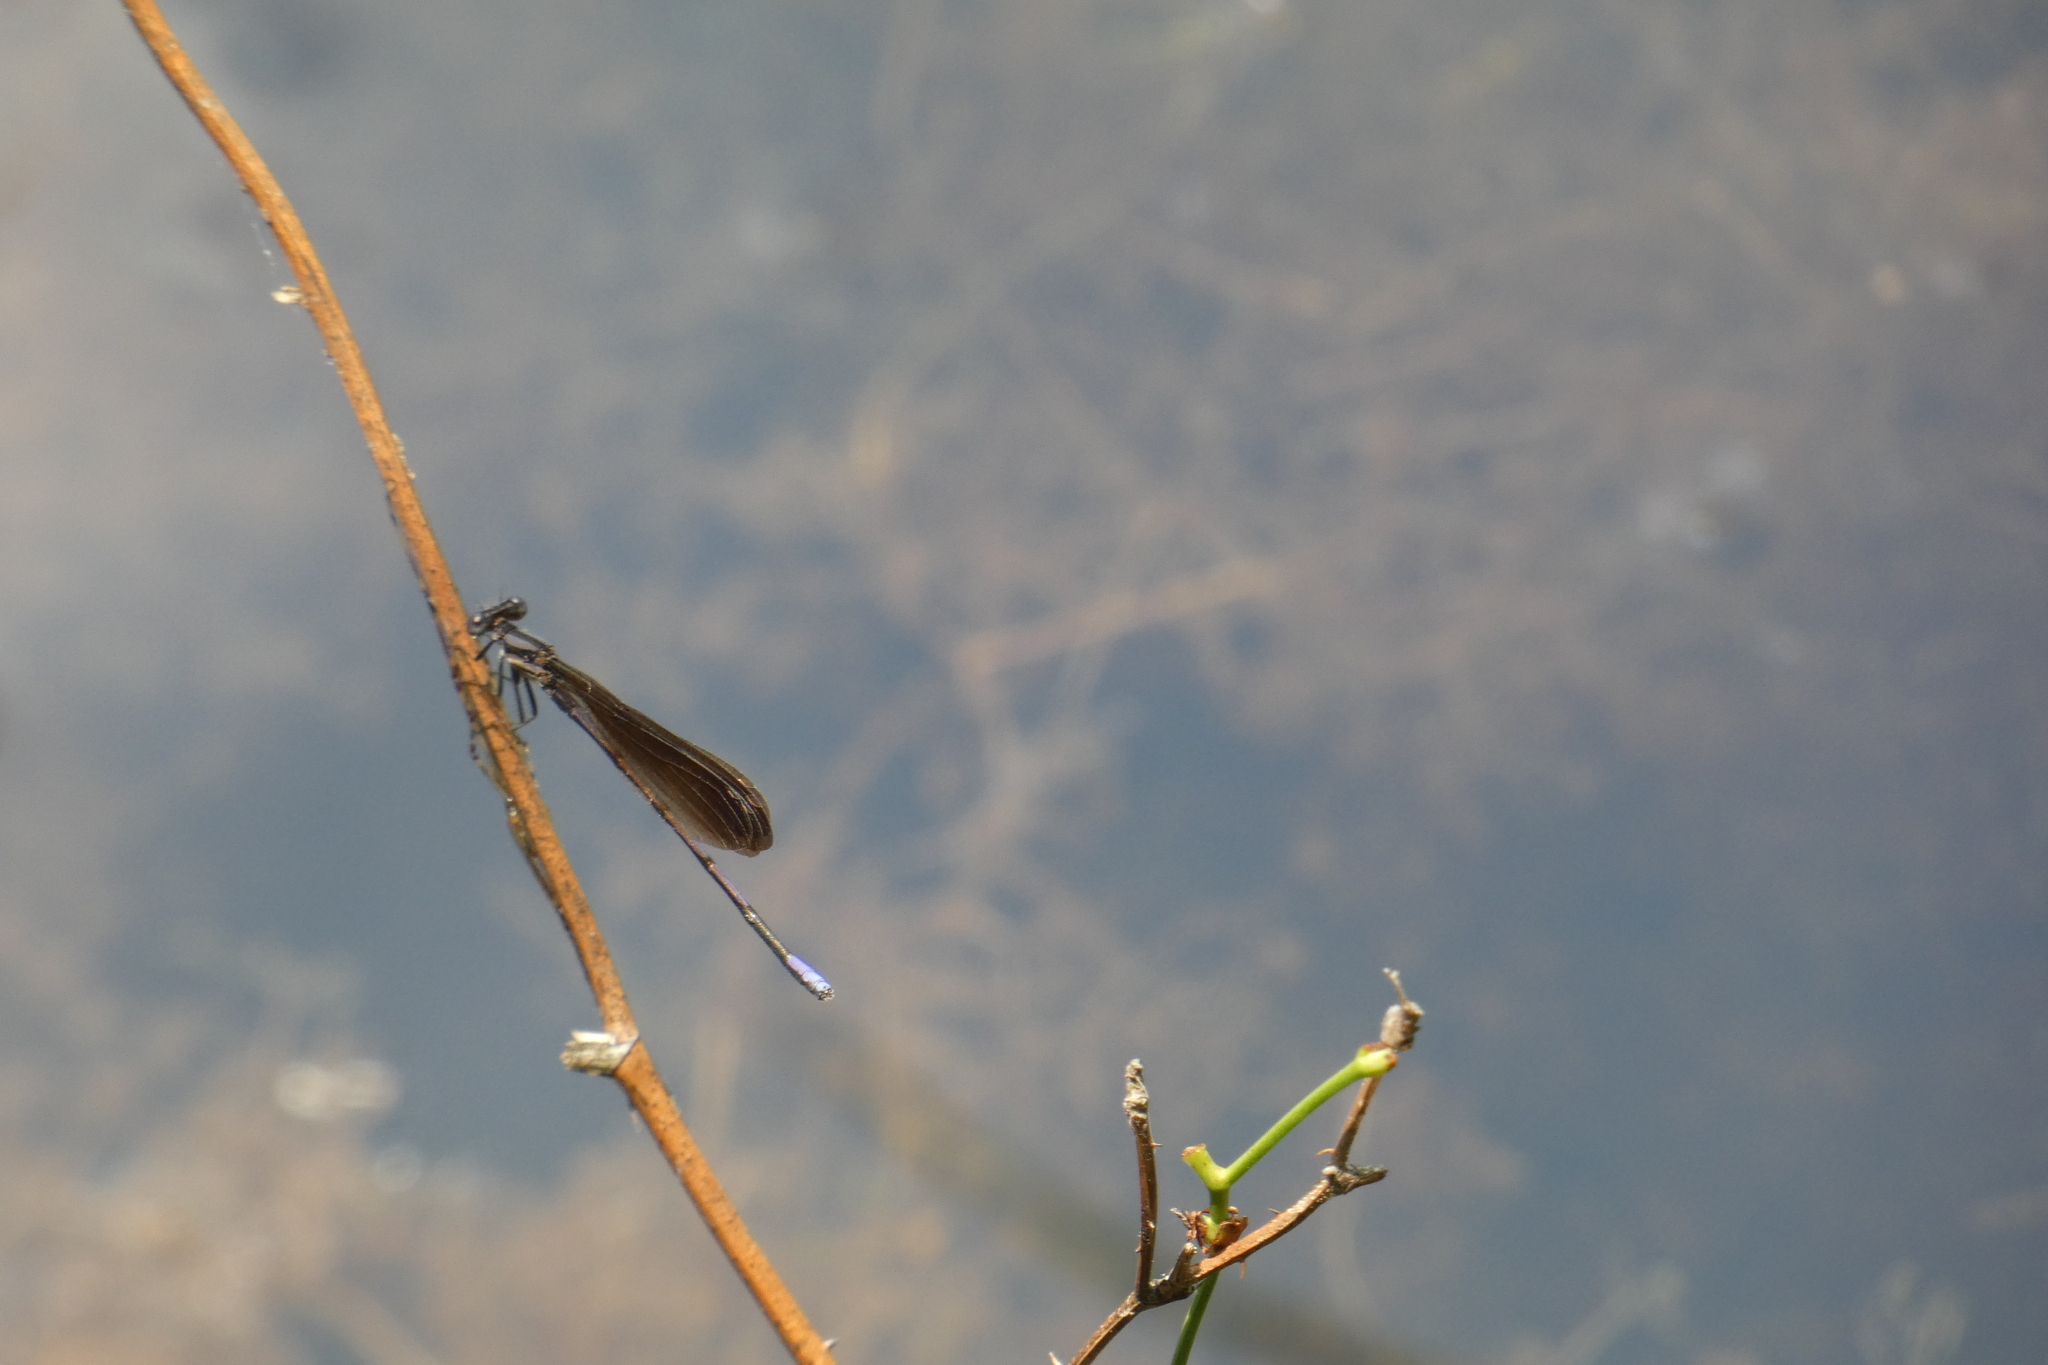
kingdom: Animalia
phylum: Arthropoda
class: Insecta
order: Odonata
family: Coenagrionidae
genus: Argia
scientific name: Argia fumipennis
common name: Variable dancer
